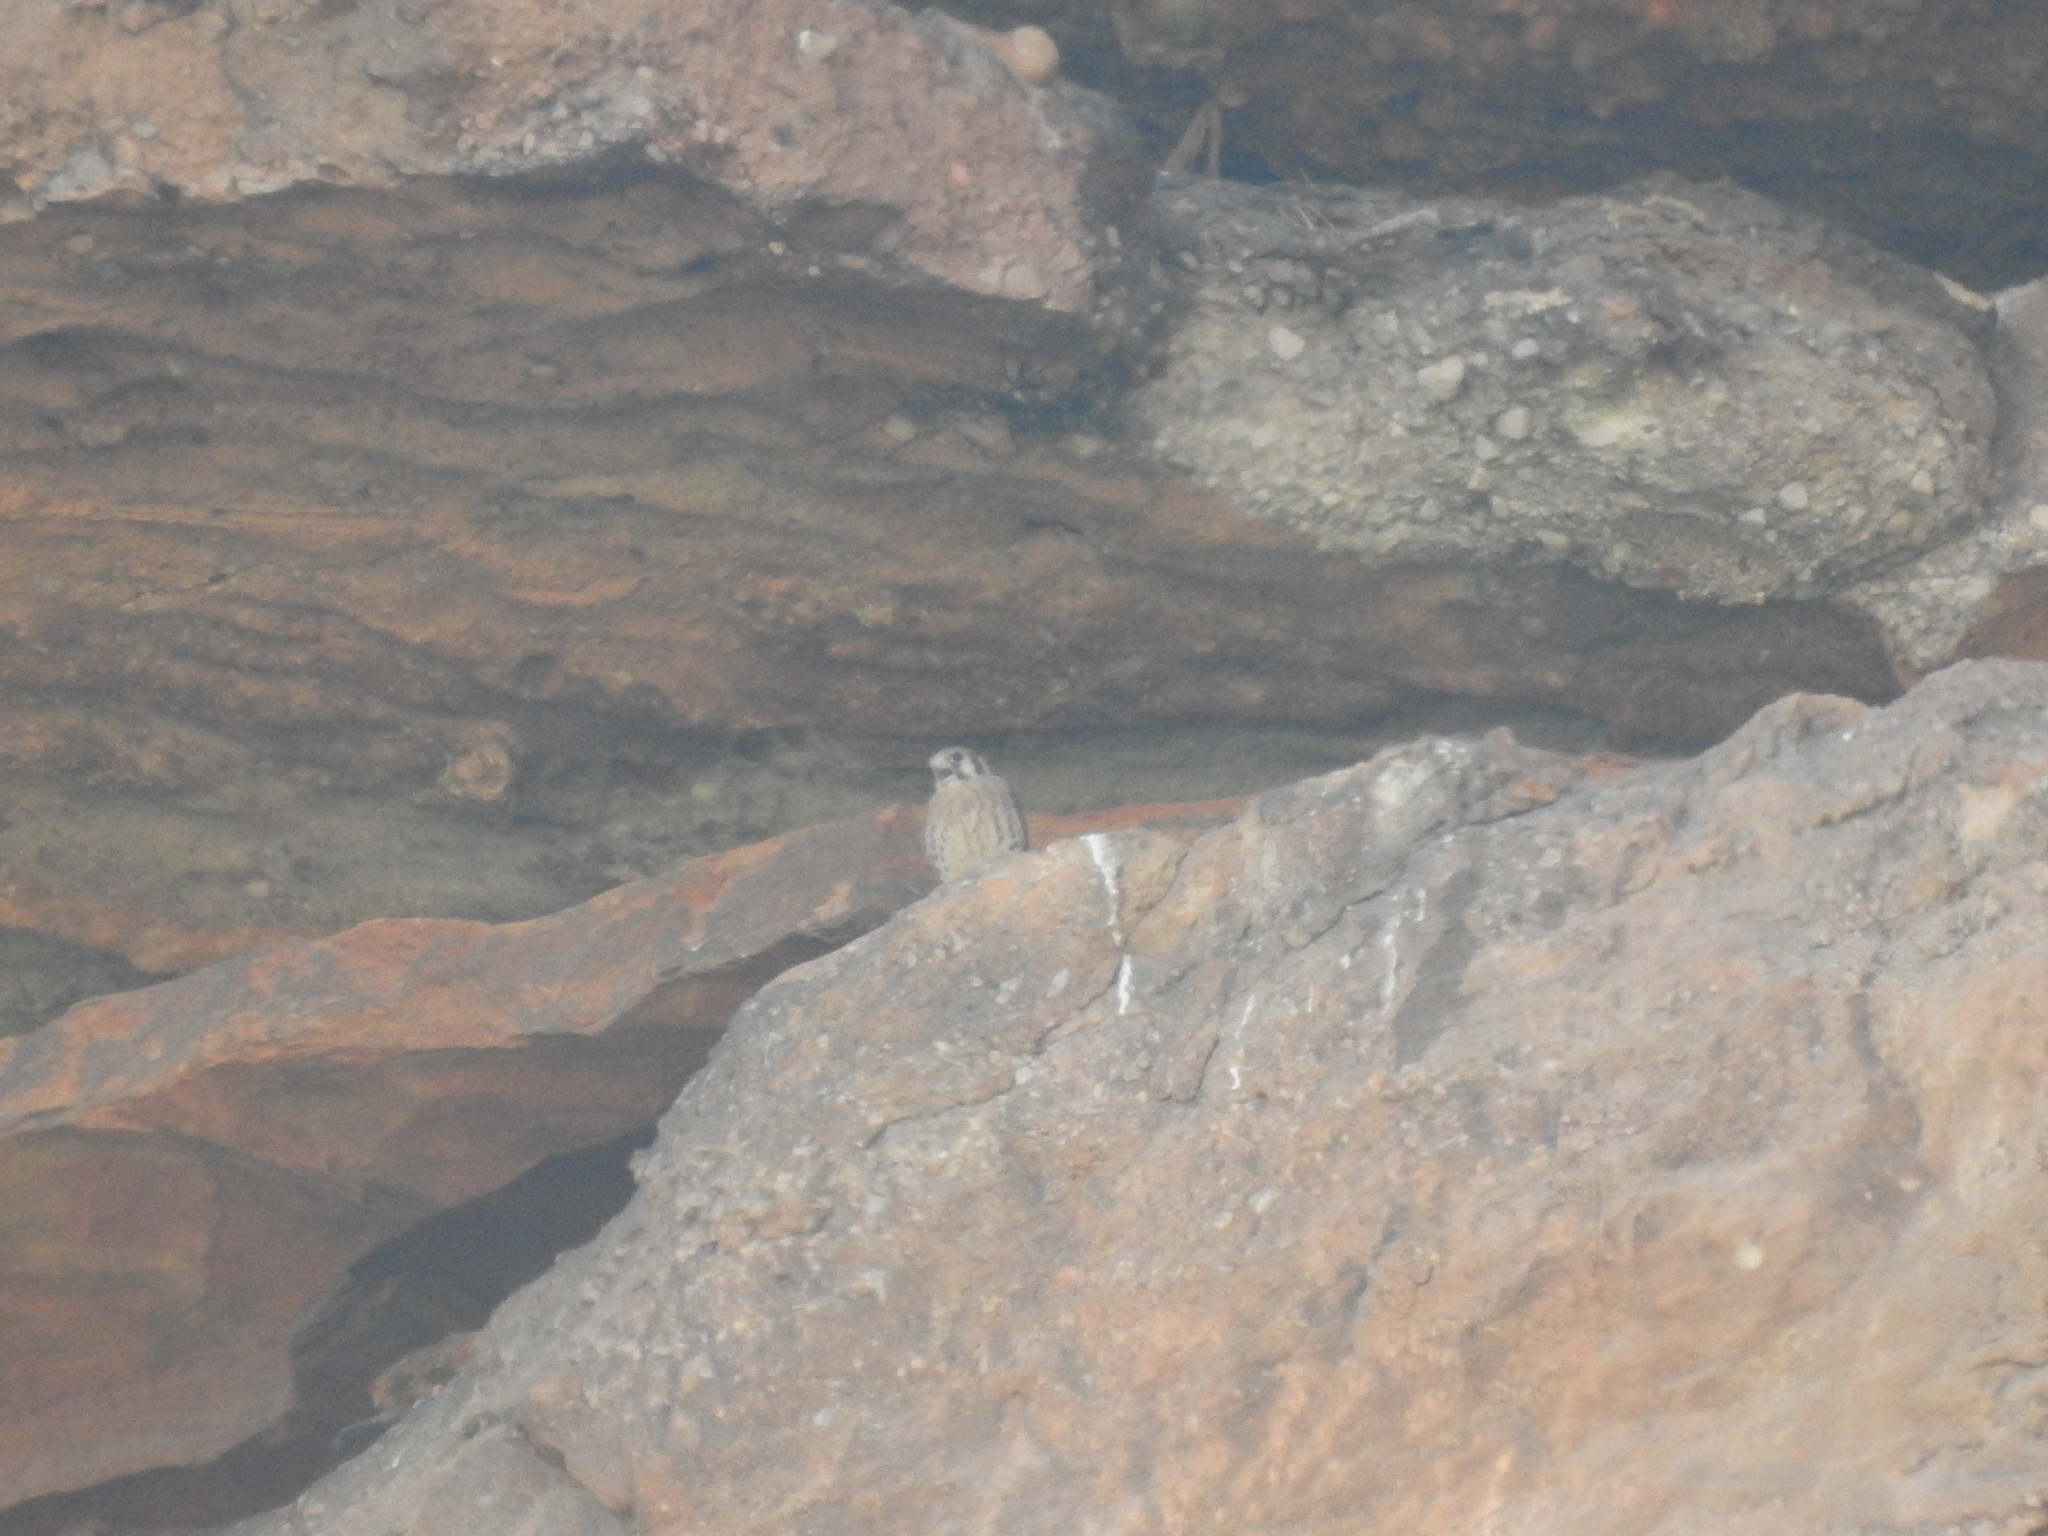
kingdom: Animalia
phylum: Chordata
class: Aves
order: Falconiformes
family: Falconidae
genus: Falco
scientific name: Falco sparverius
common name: American kestrel
